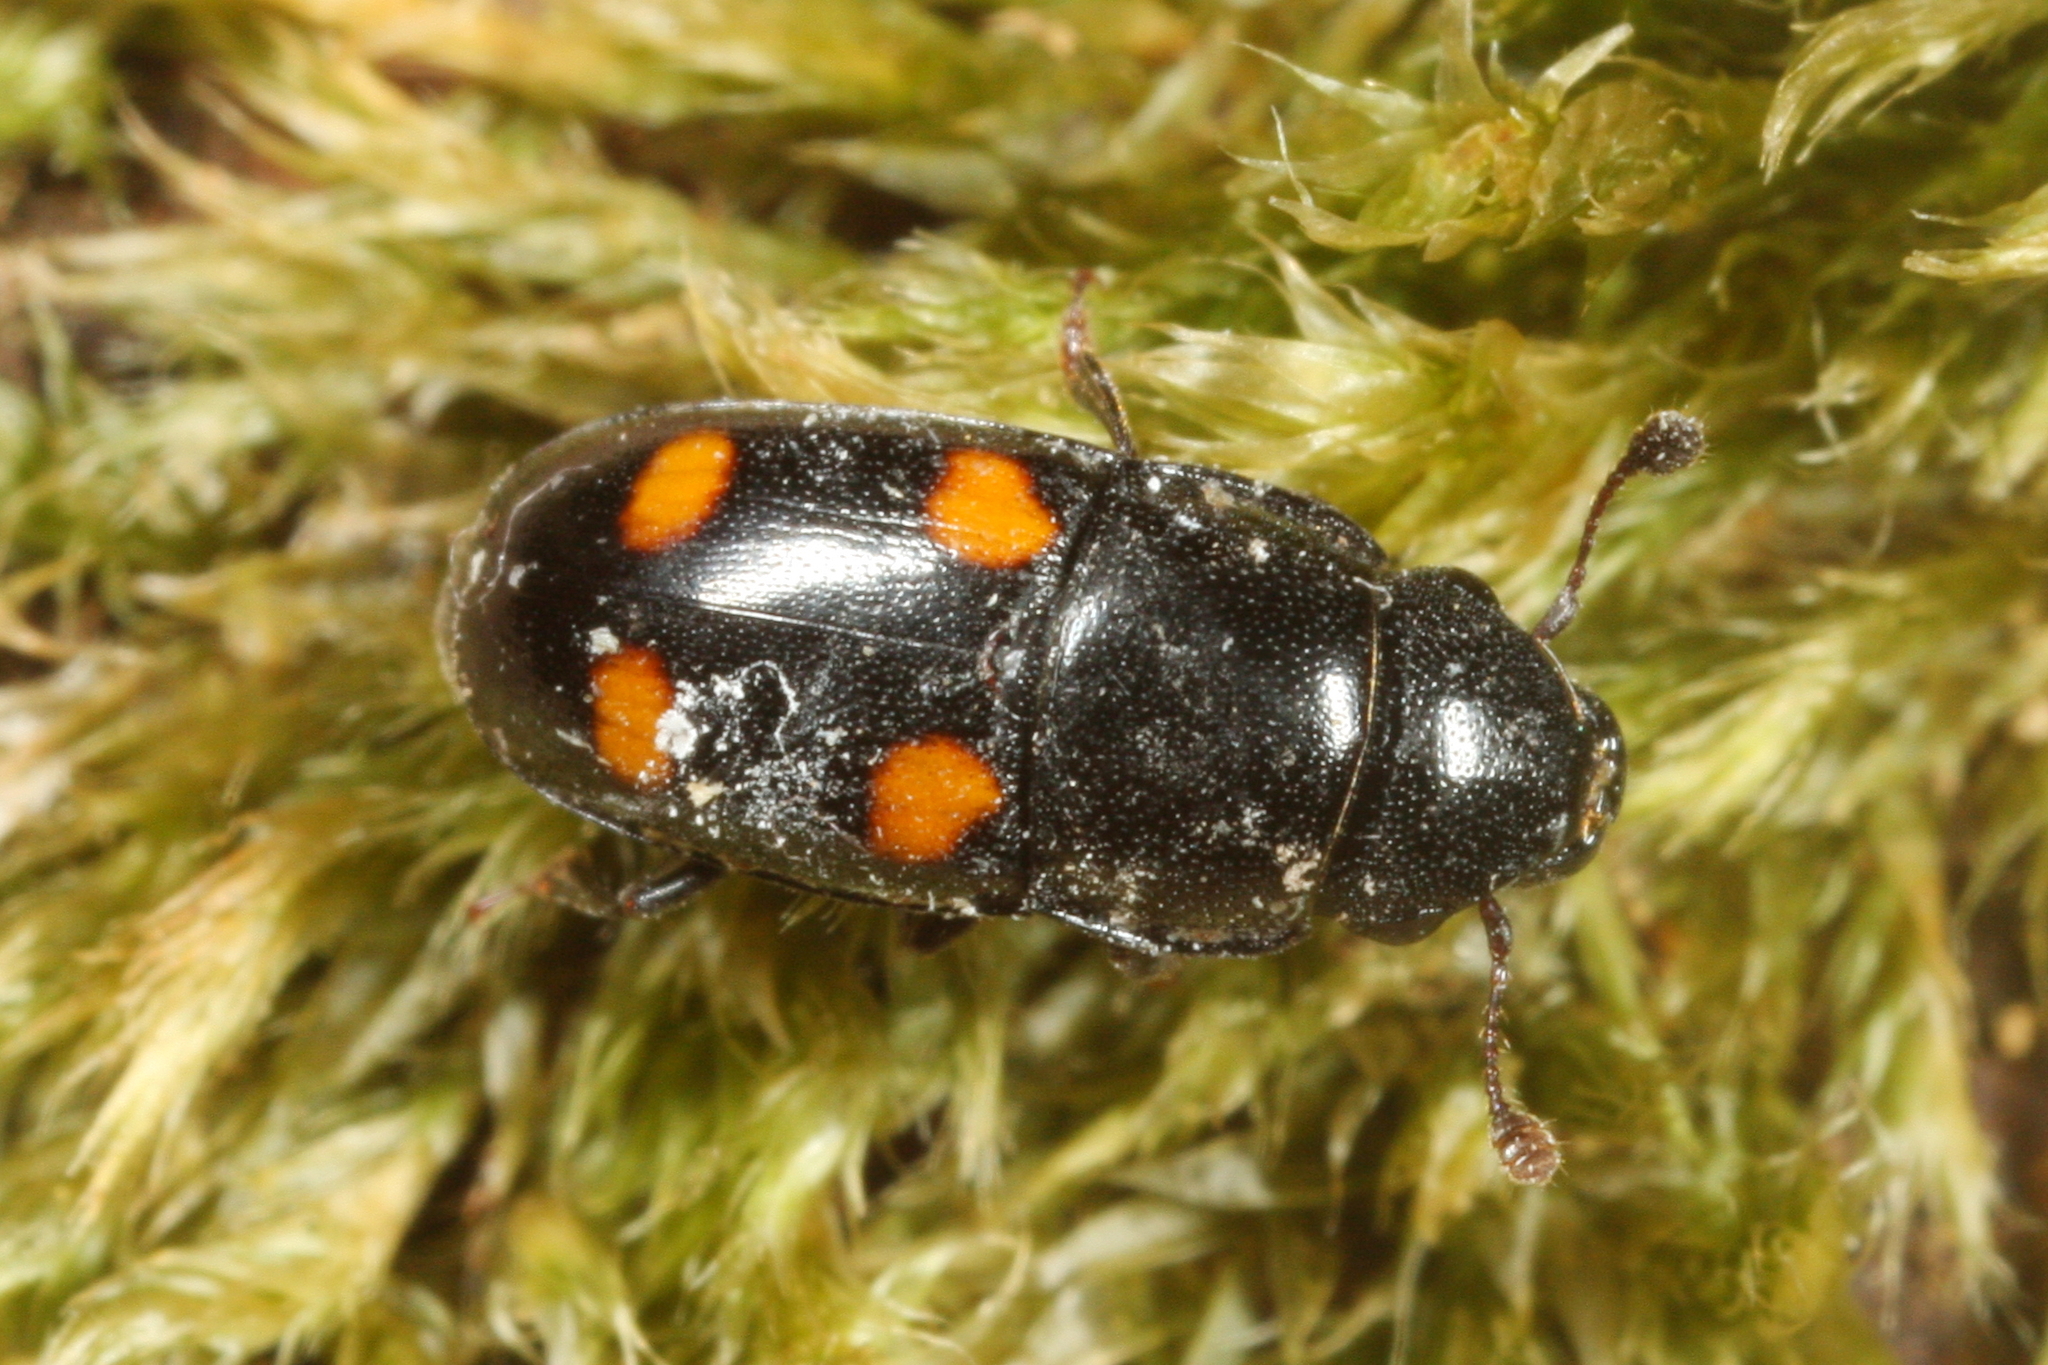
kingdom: Animalia
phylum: Arthropoda
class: Insecta
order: Coleoptera
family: Nitidulidae
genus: Glischrochilus
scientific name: Glischrochilus hortensis
